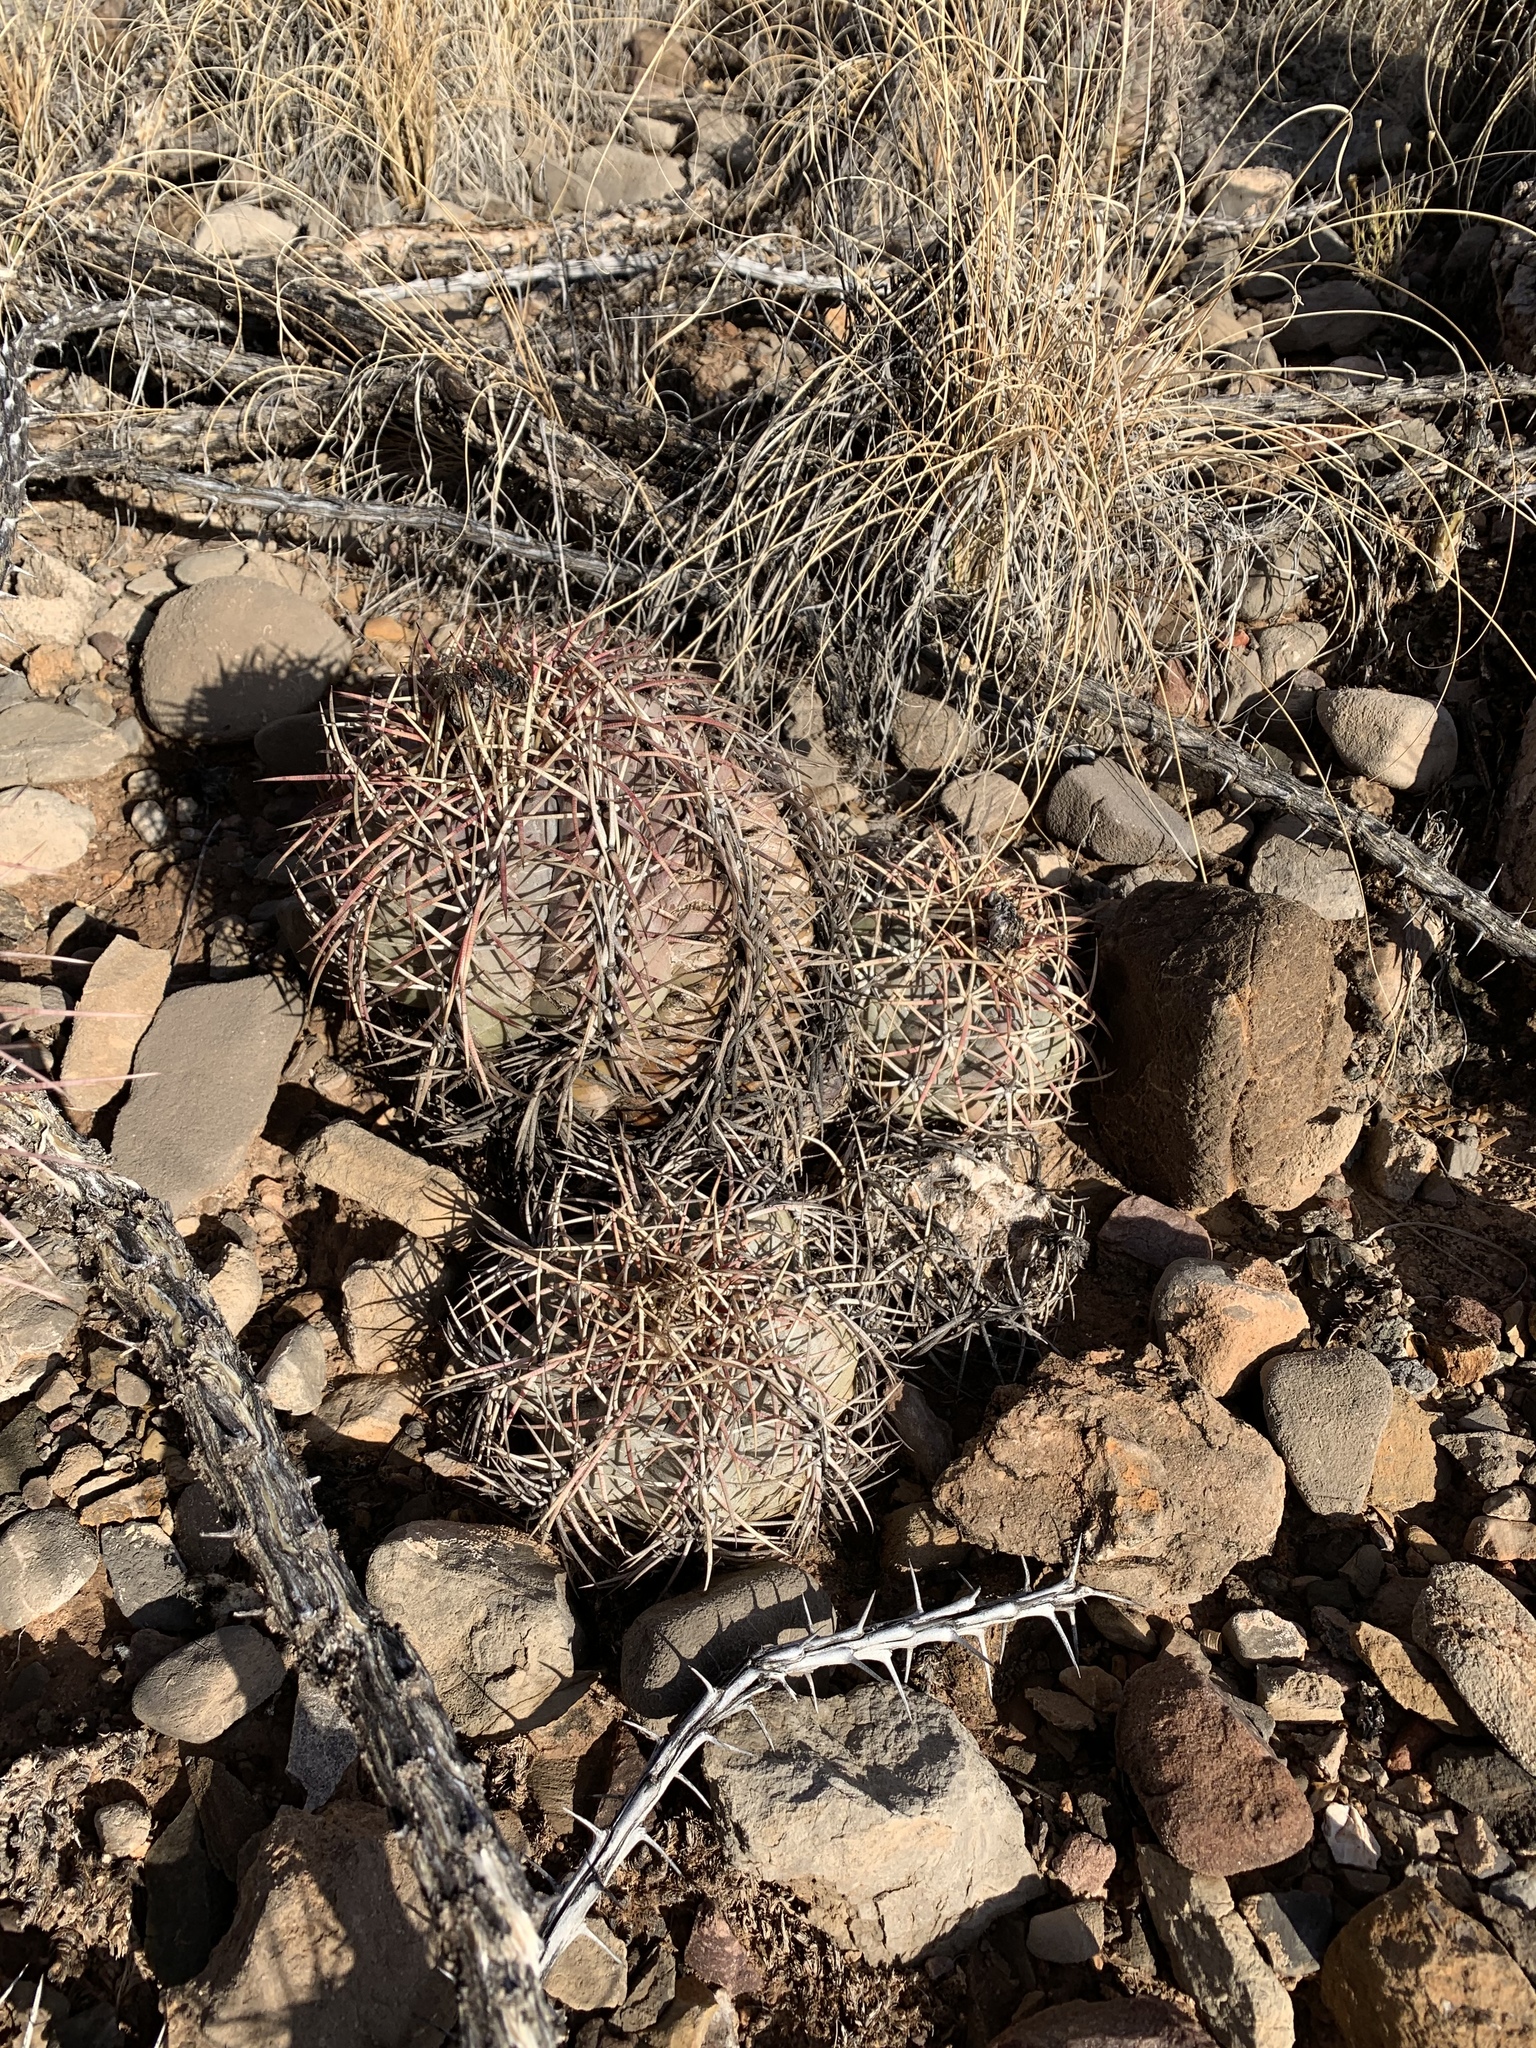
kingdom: Plantae
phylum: Tracheophyta
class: Magnoliopsida
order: Caryophyllales
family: Cactaceae
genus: Echinocactus
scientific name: Echinocactus horizonthalonius
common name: Devilshead
